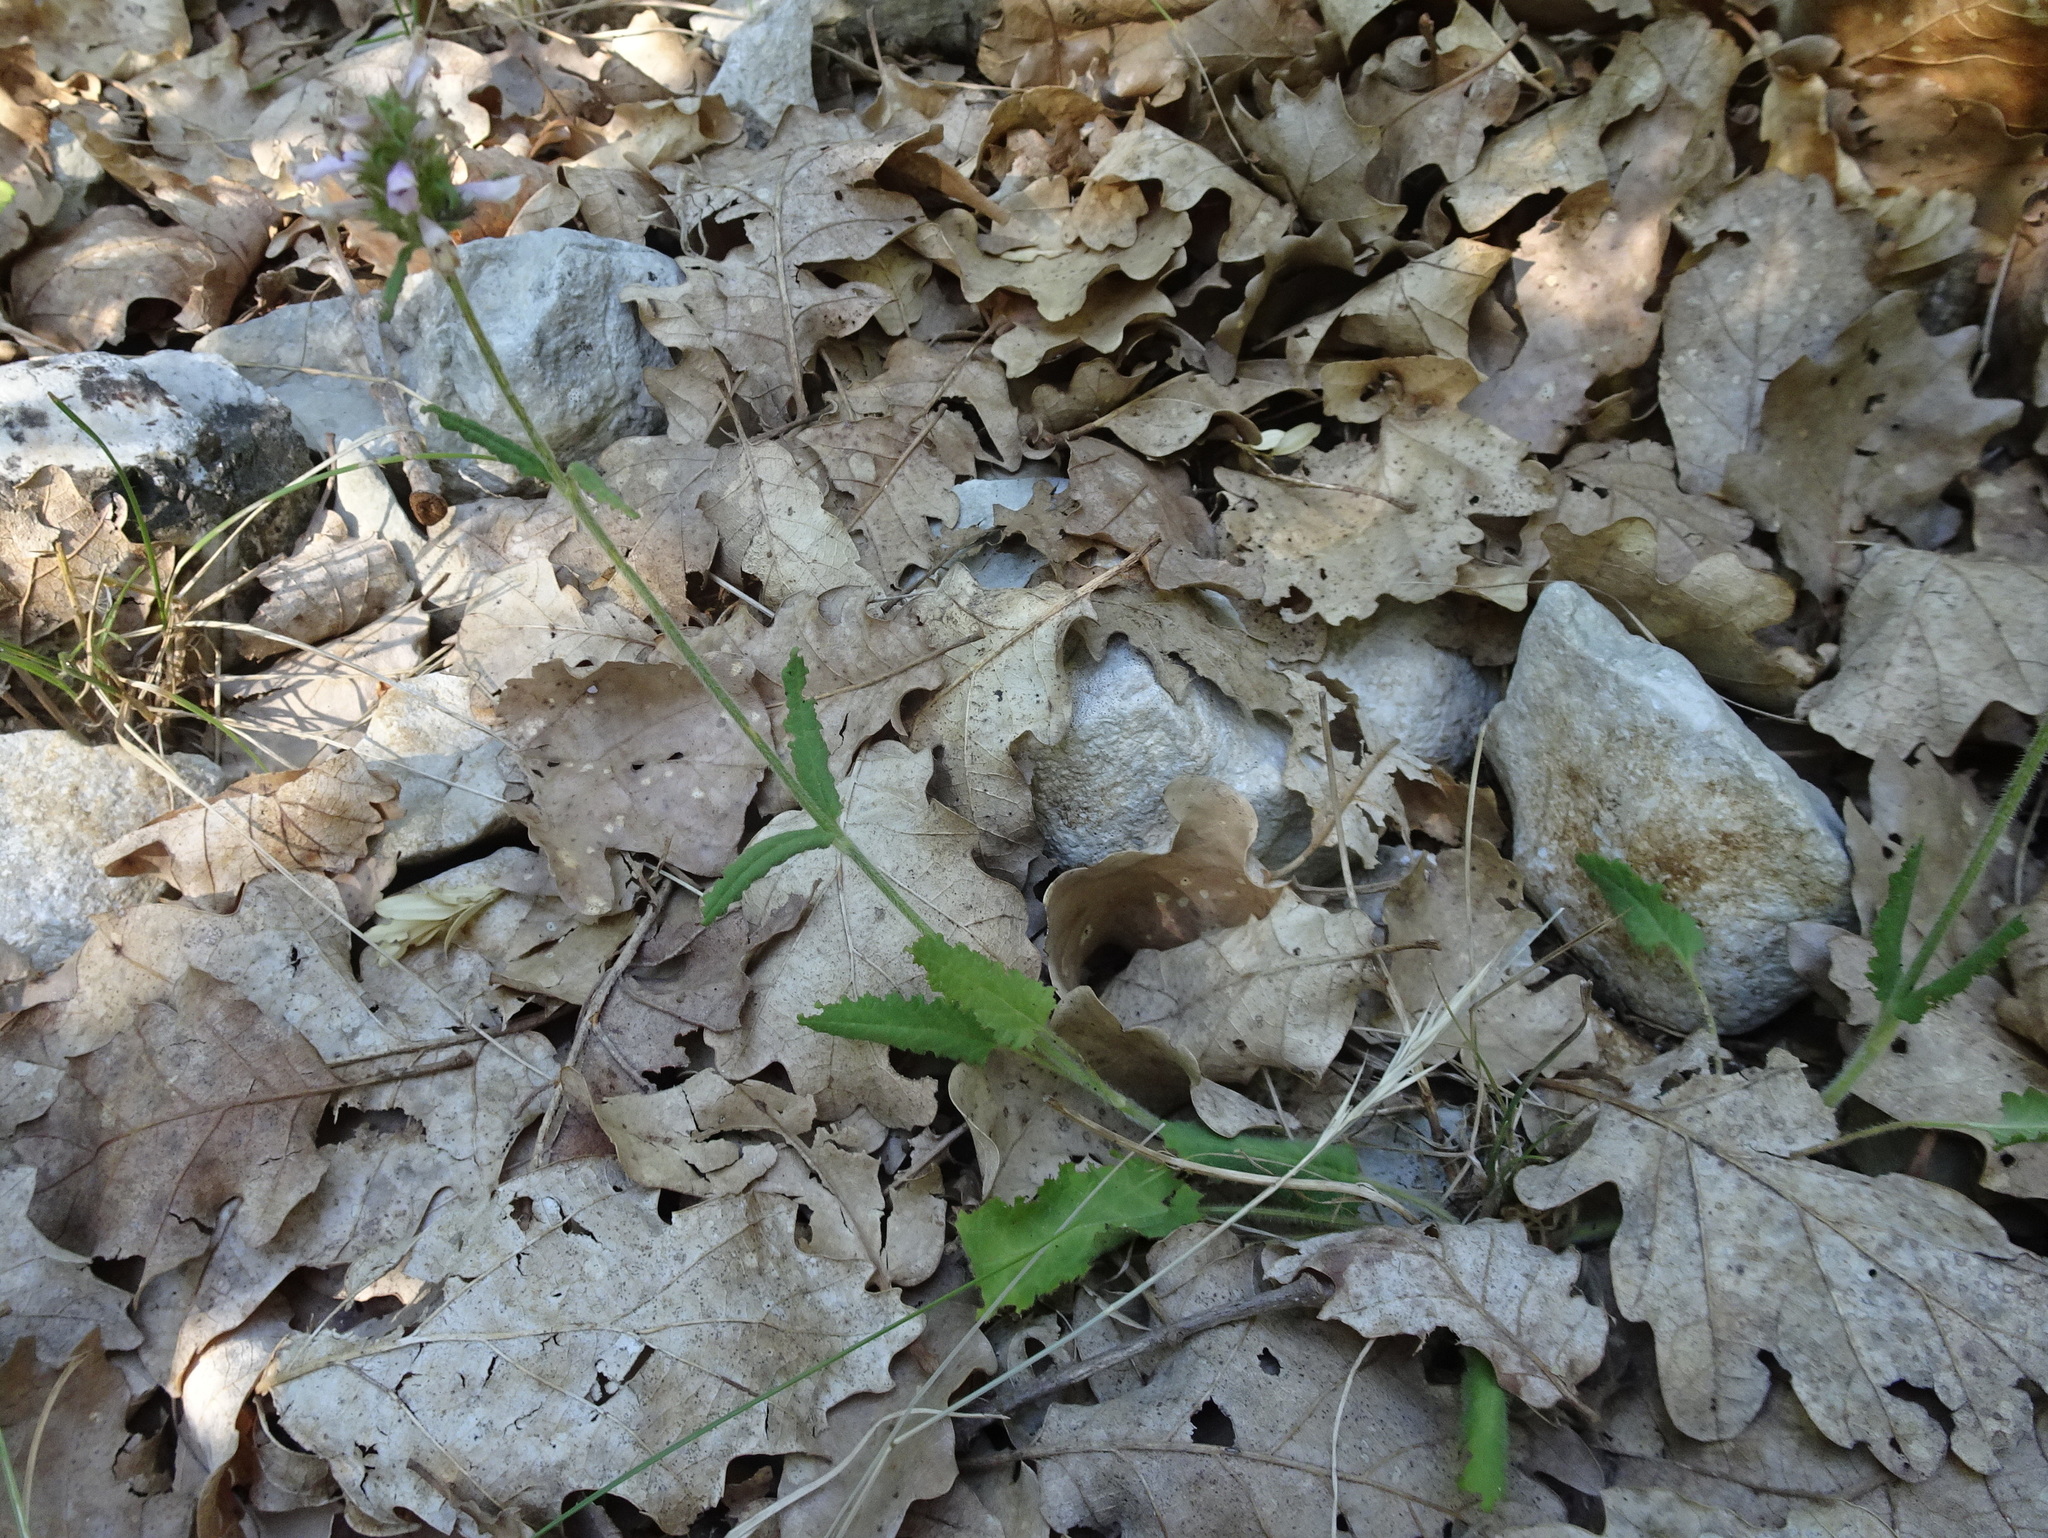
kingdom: Plantae
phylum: Tracheophyta
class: Magnoliopsida
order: Lamiales
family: Lamiaceae
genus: Betonica
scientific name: Betonica officinalis
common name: Bishop's-wort
